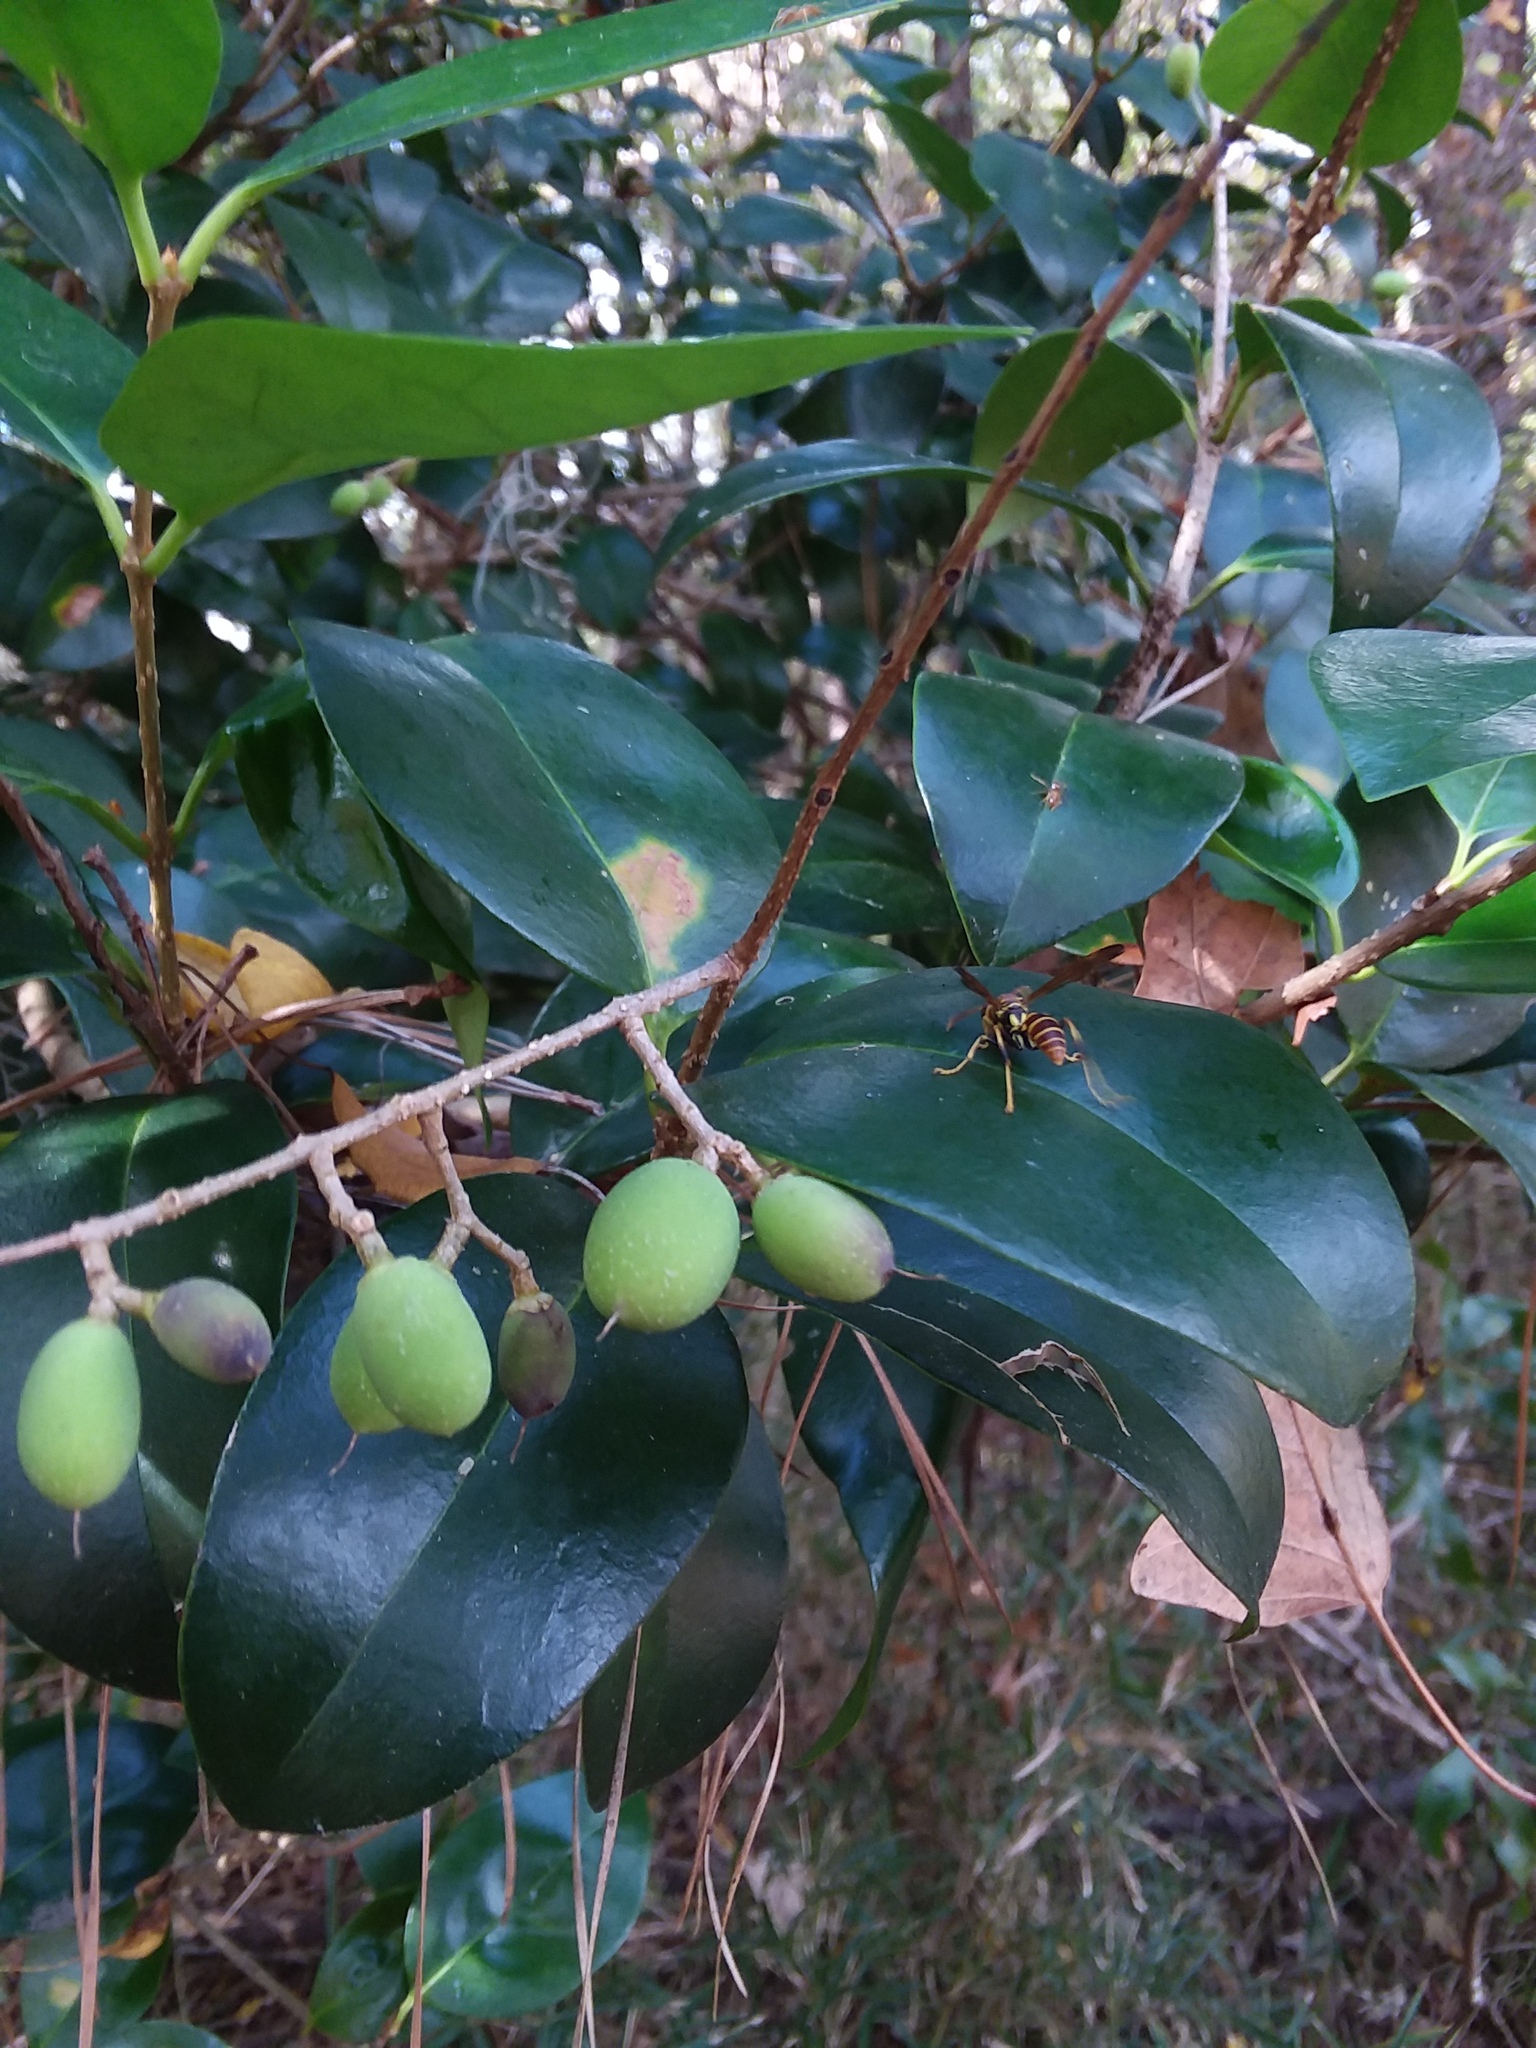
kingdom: Animalia
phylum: Arthropoda
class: Insecta
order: Hymenoptera
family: Vespidae
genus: Mischocyttarus
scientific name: Mischocyttarus mexicanus
